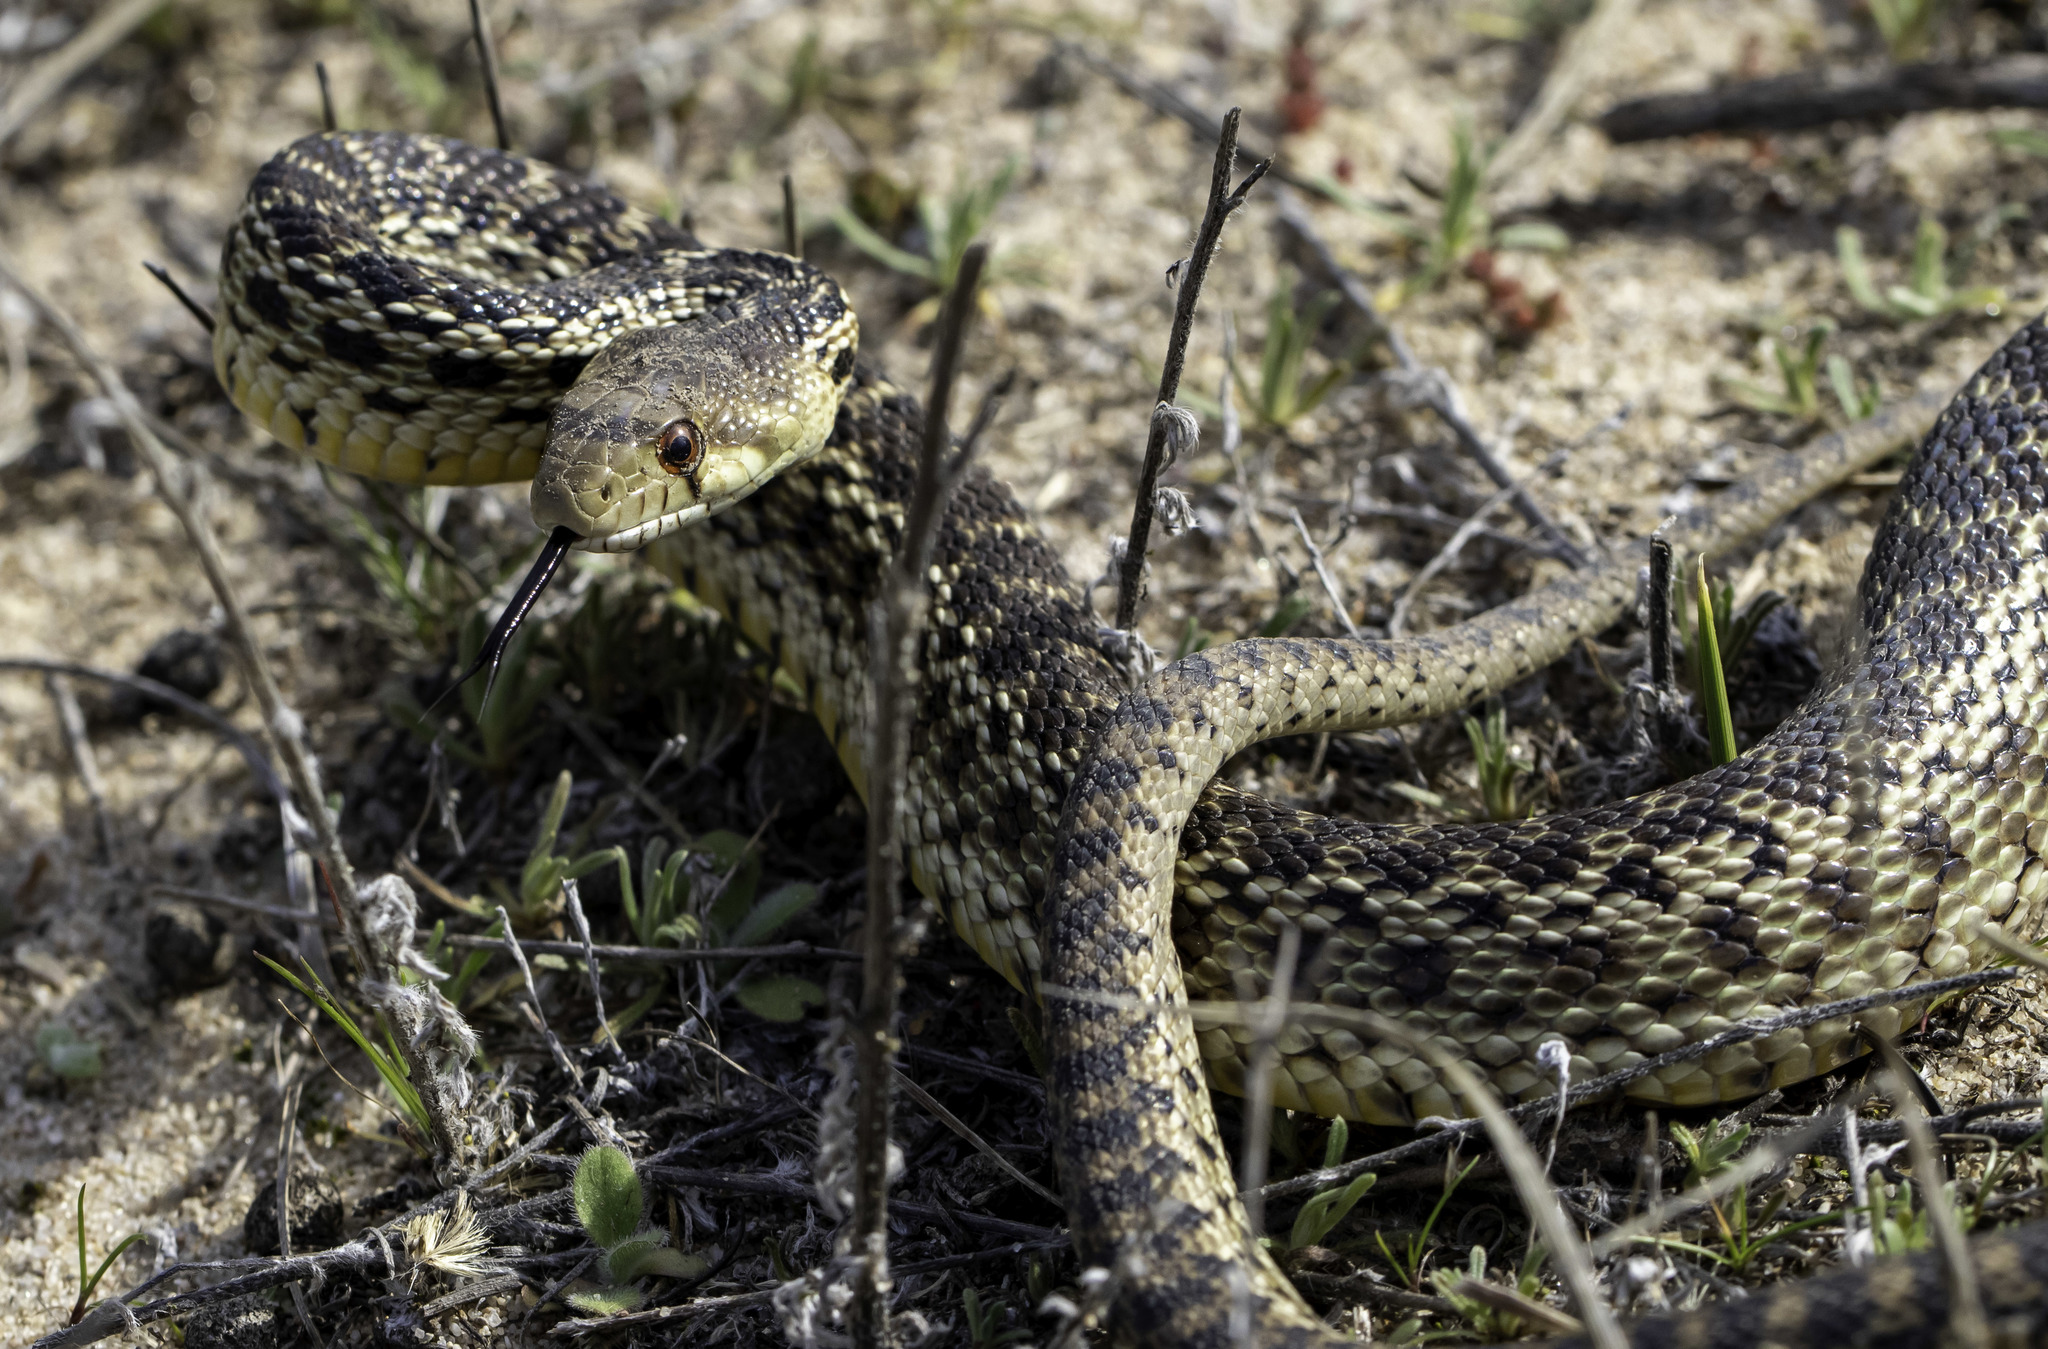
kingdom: Animalia
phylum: Chordata
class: Squamata
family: Colubridae
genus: Pituophis
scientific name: Pituophis catenifer
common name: Gopher snake
